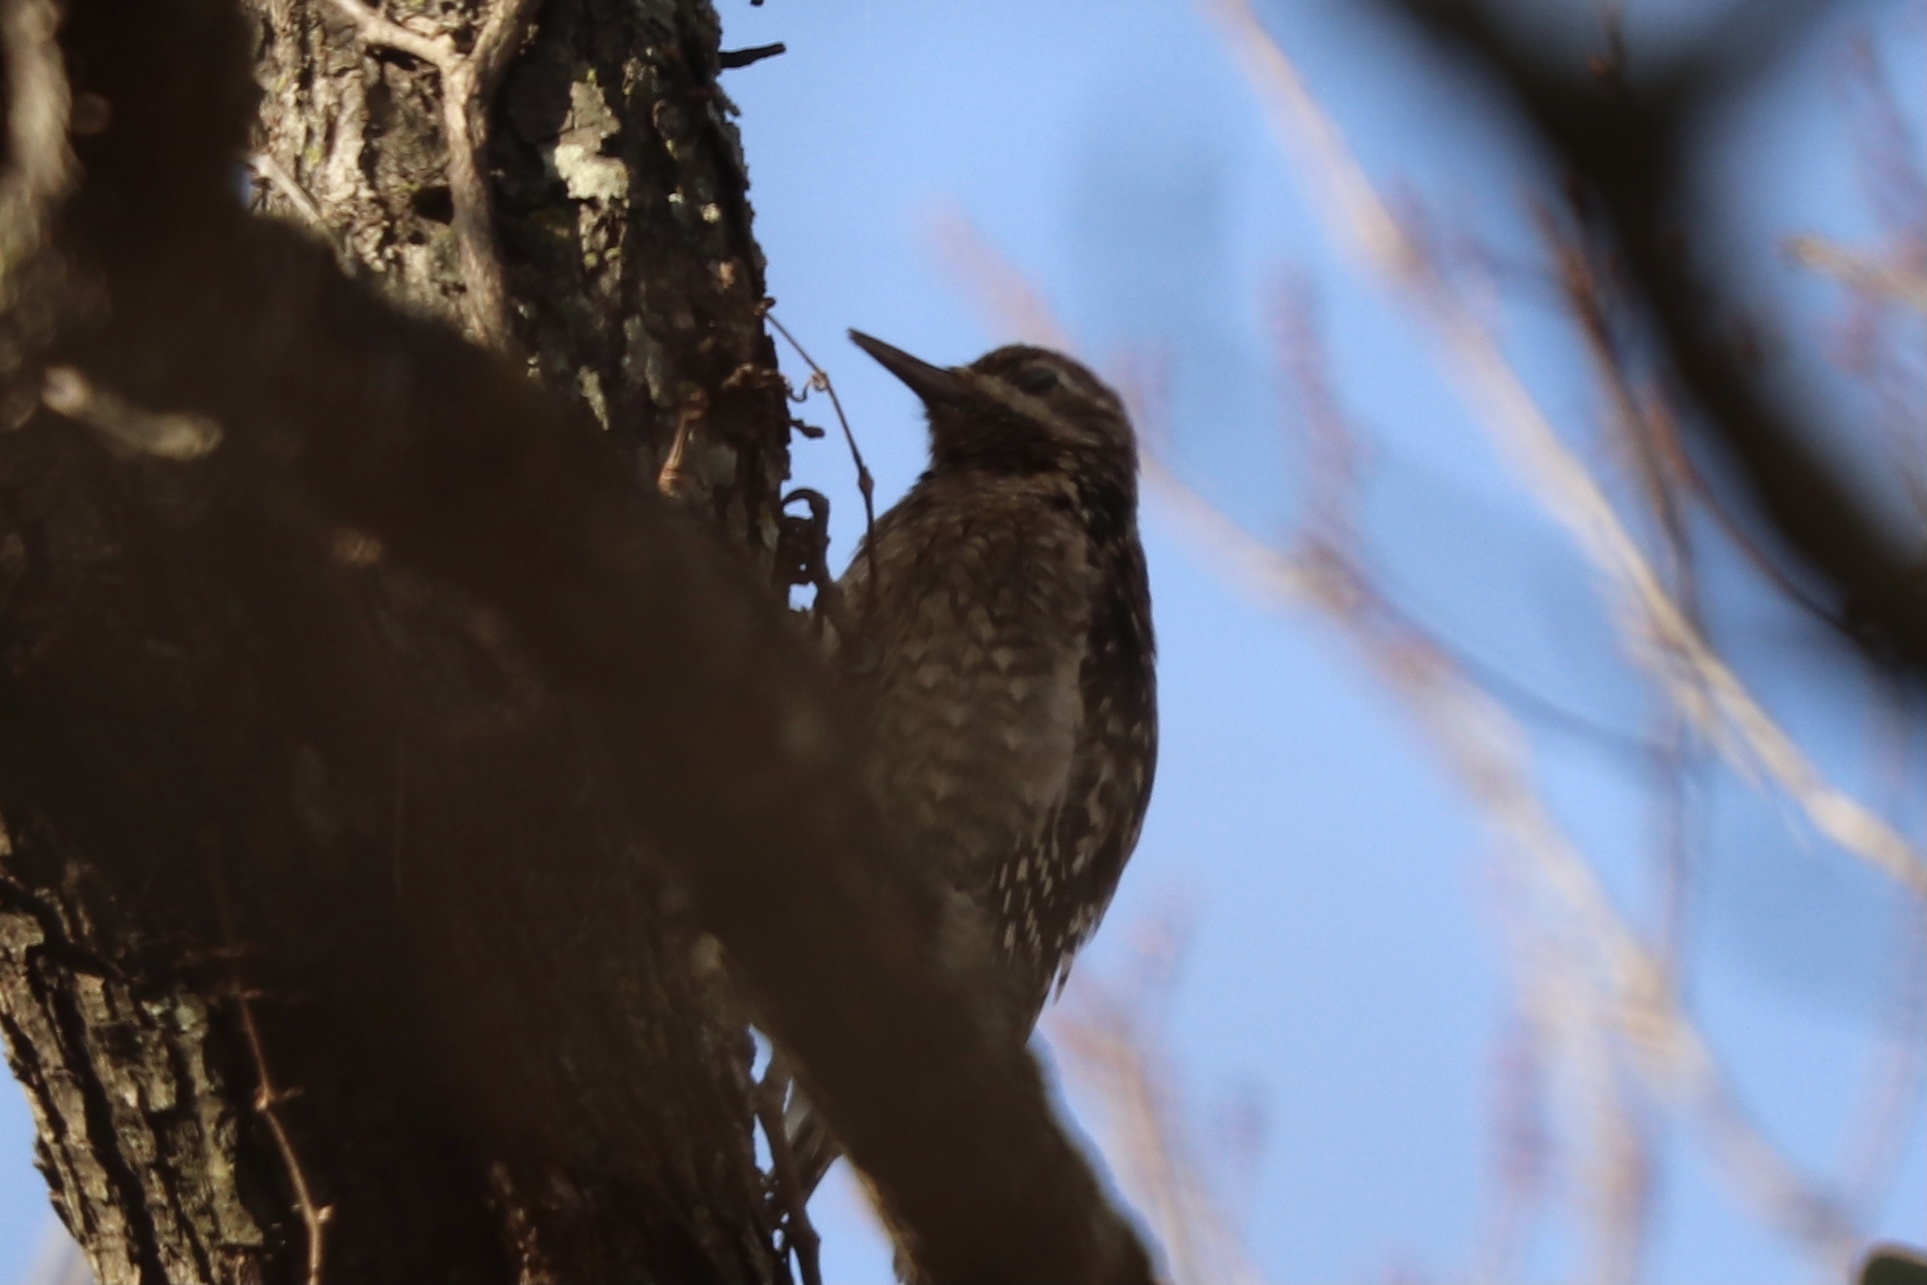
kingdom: Animalia
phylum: Chordata
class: Aves
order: Piciformes
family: Picidae
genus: Sphyrapicus
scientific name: Sphyrapicus varius
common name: Yellow-bellied sapsucker
